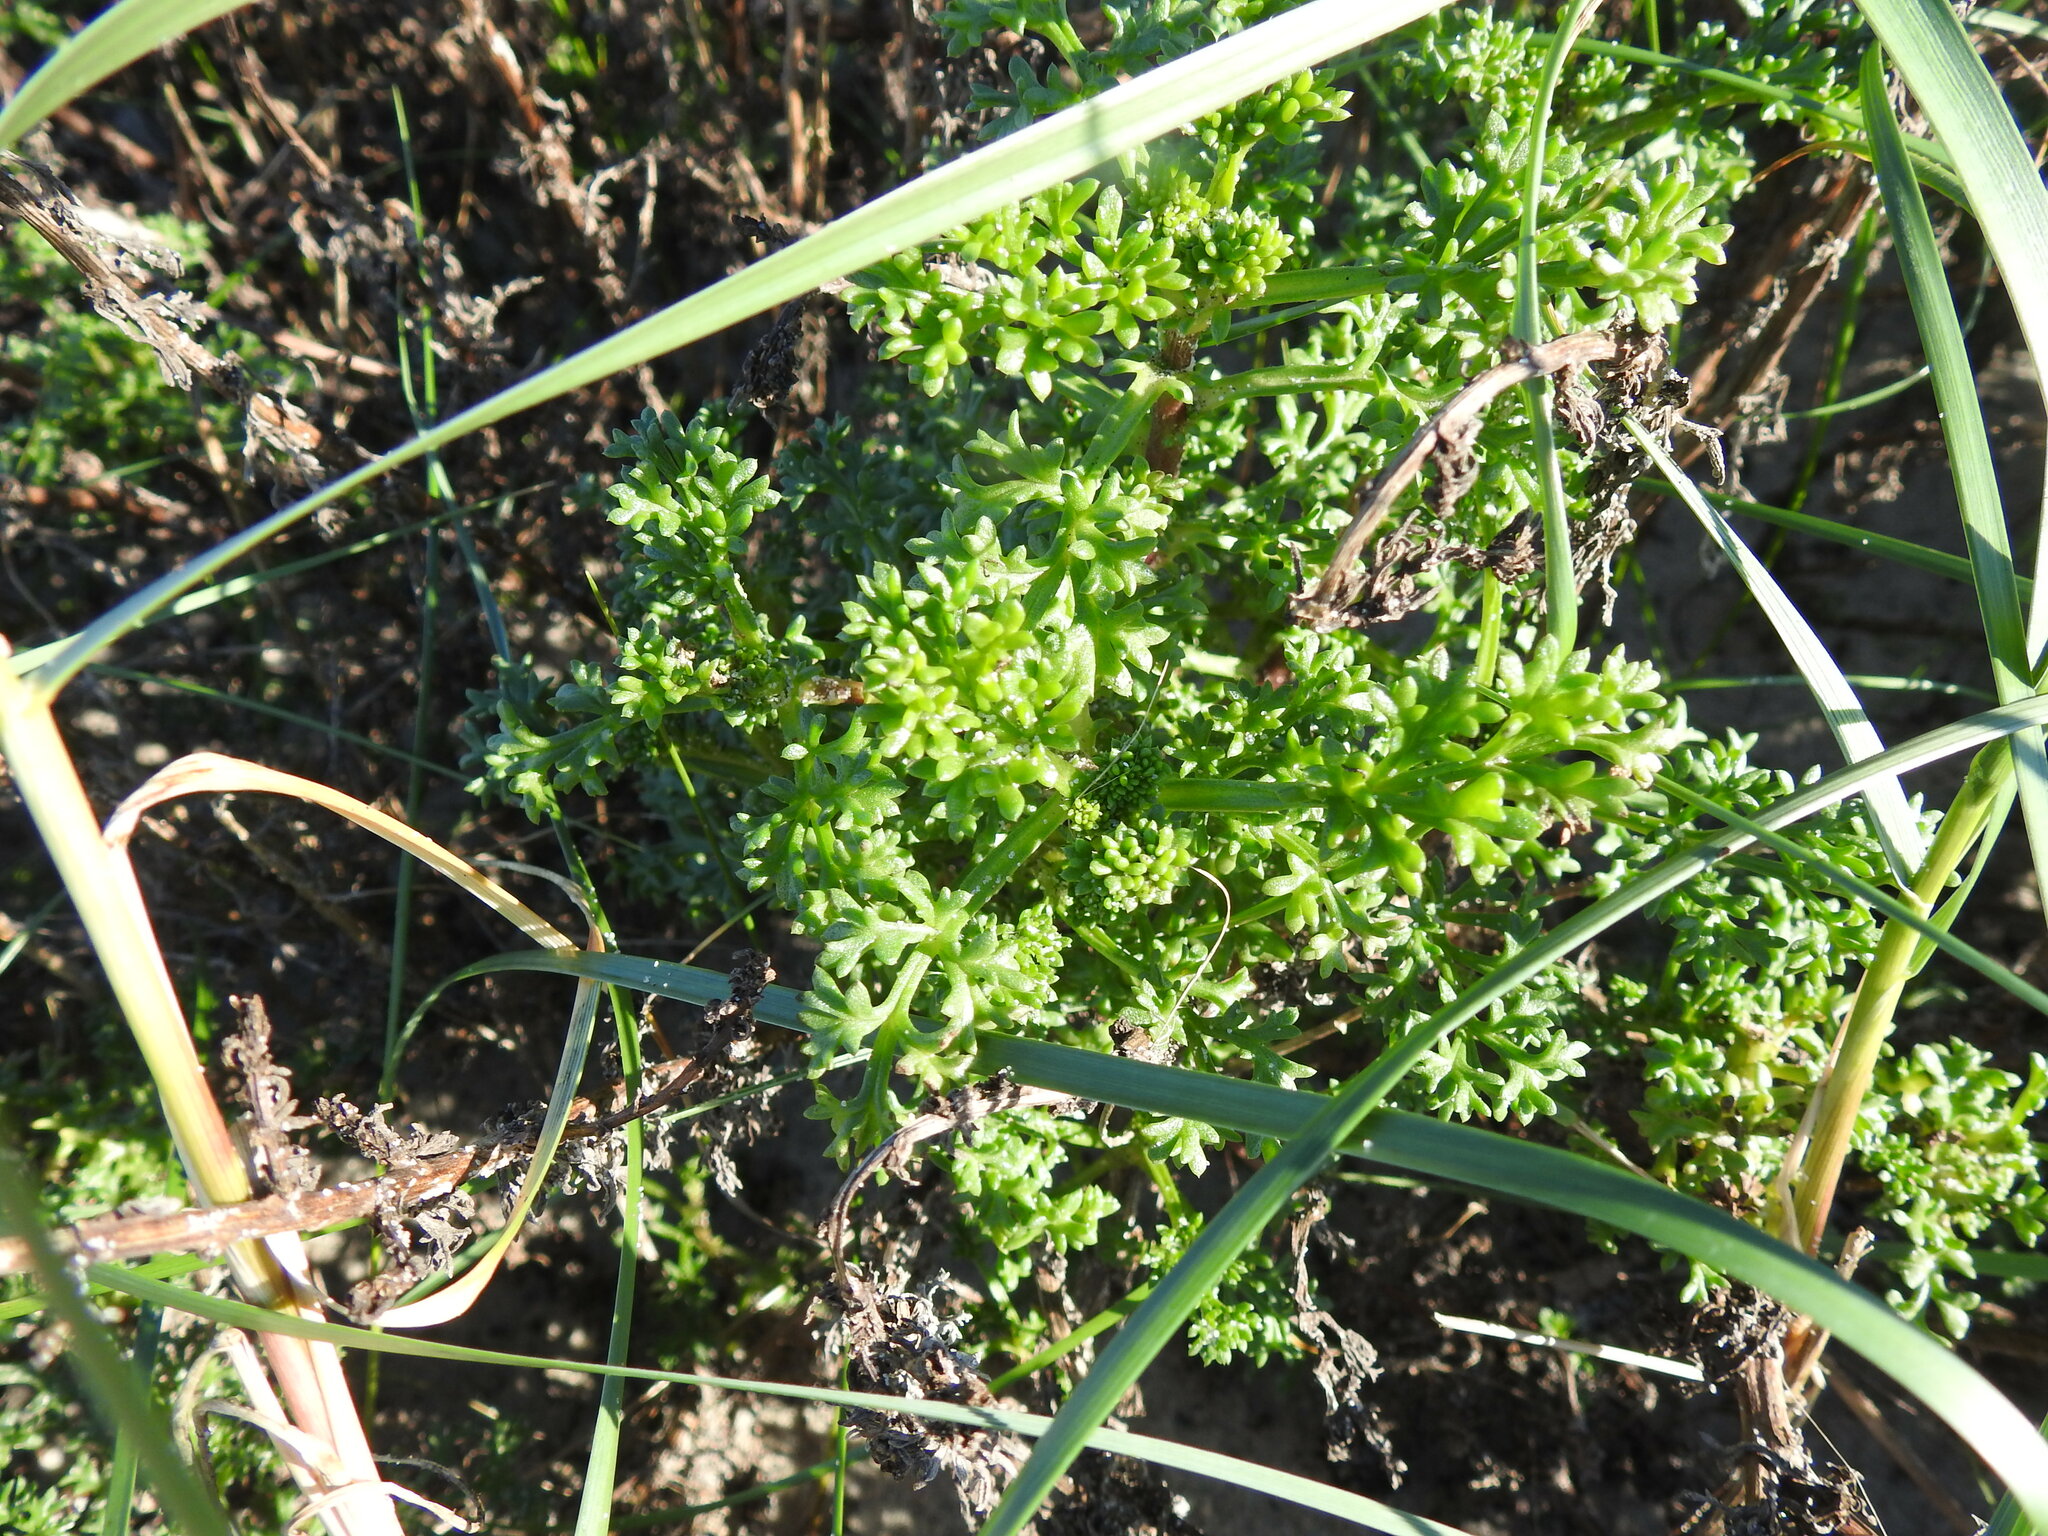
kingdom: Plantae
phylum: Tracheophyta
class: Magnoliopsida
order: Asterales
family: Asteraceae
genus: Artemisia
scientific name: Artemisia crithmifolia
